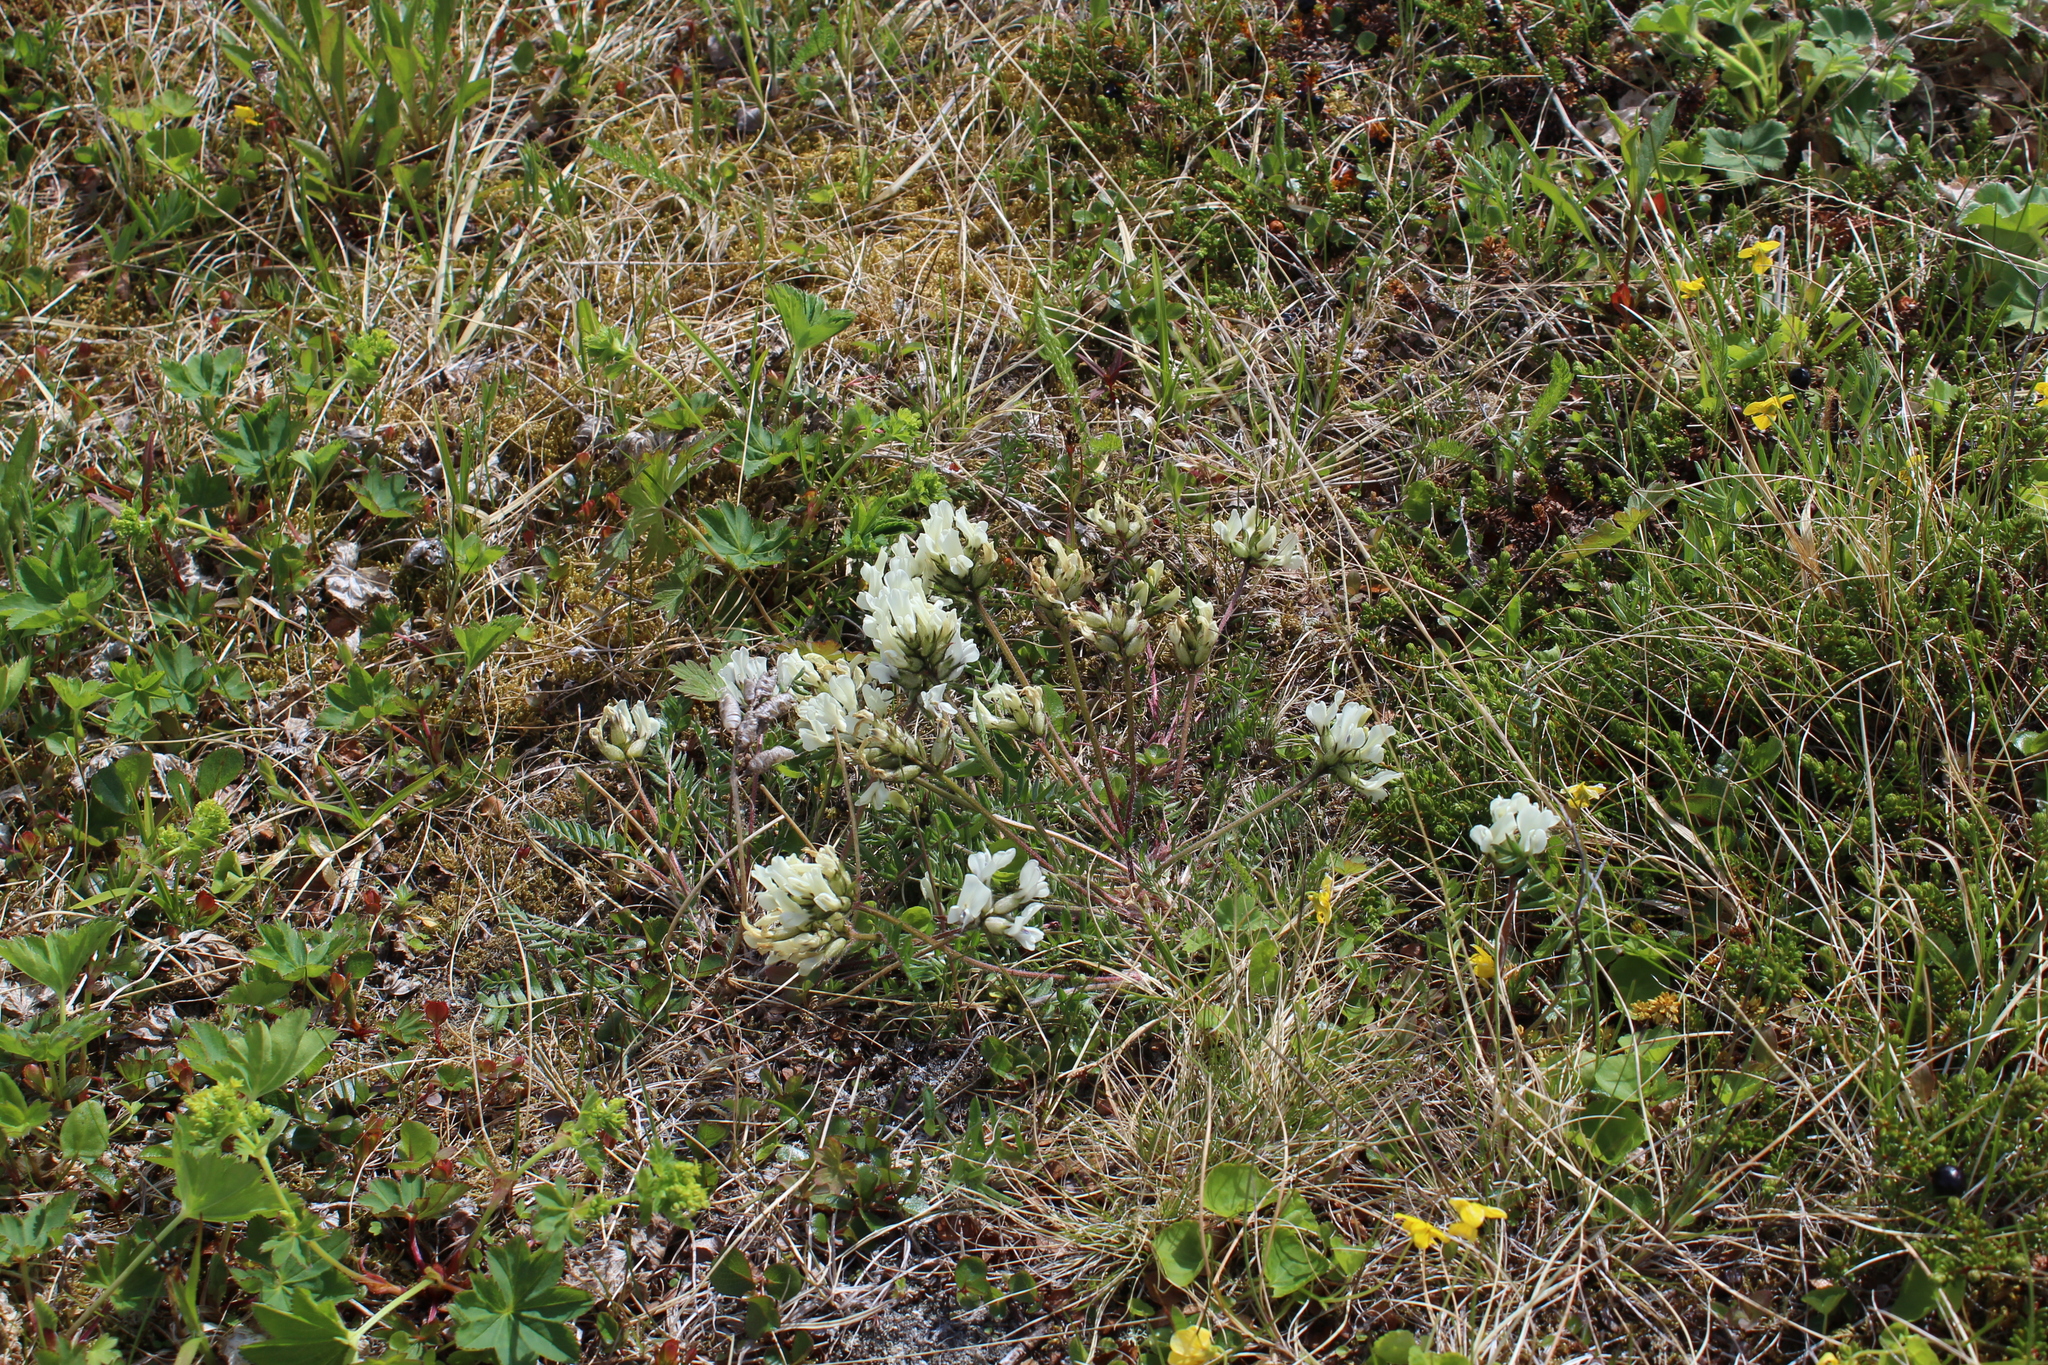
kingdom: Plantae
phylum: Tracheophyta
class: Magnoliopsida
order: Fabales
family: Fabaceae
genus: Oxytropis
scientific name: Oxytropis sordida
